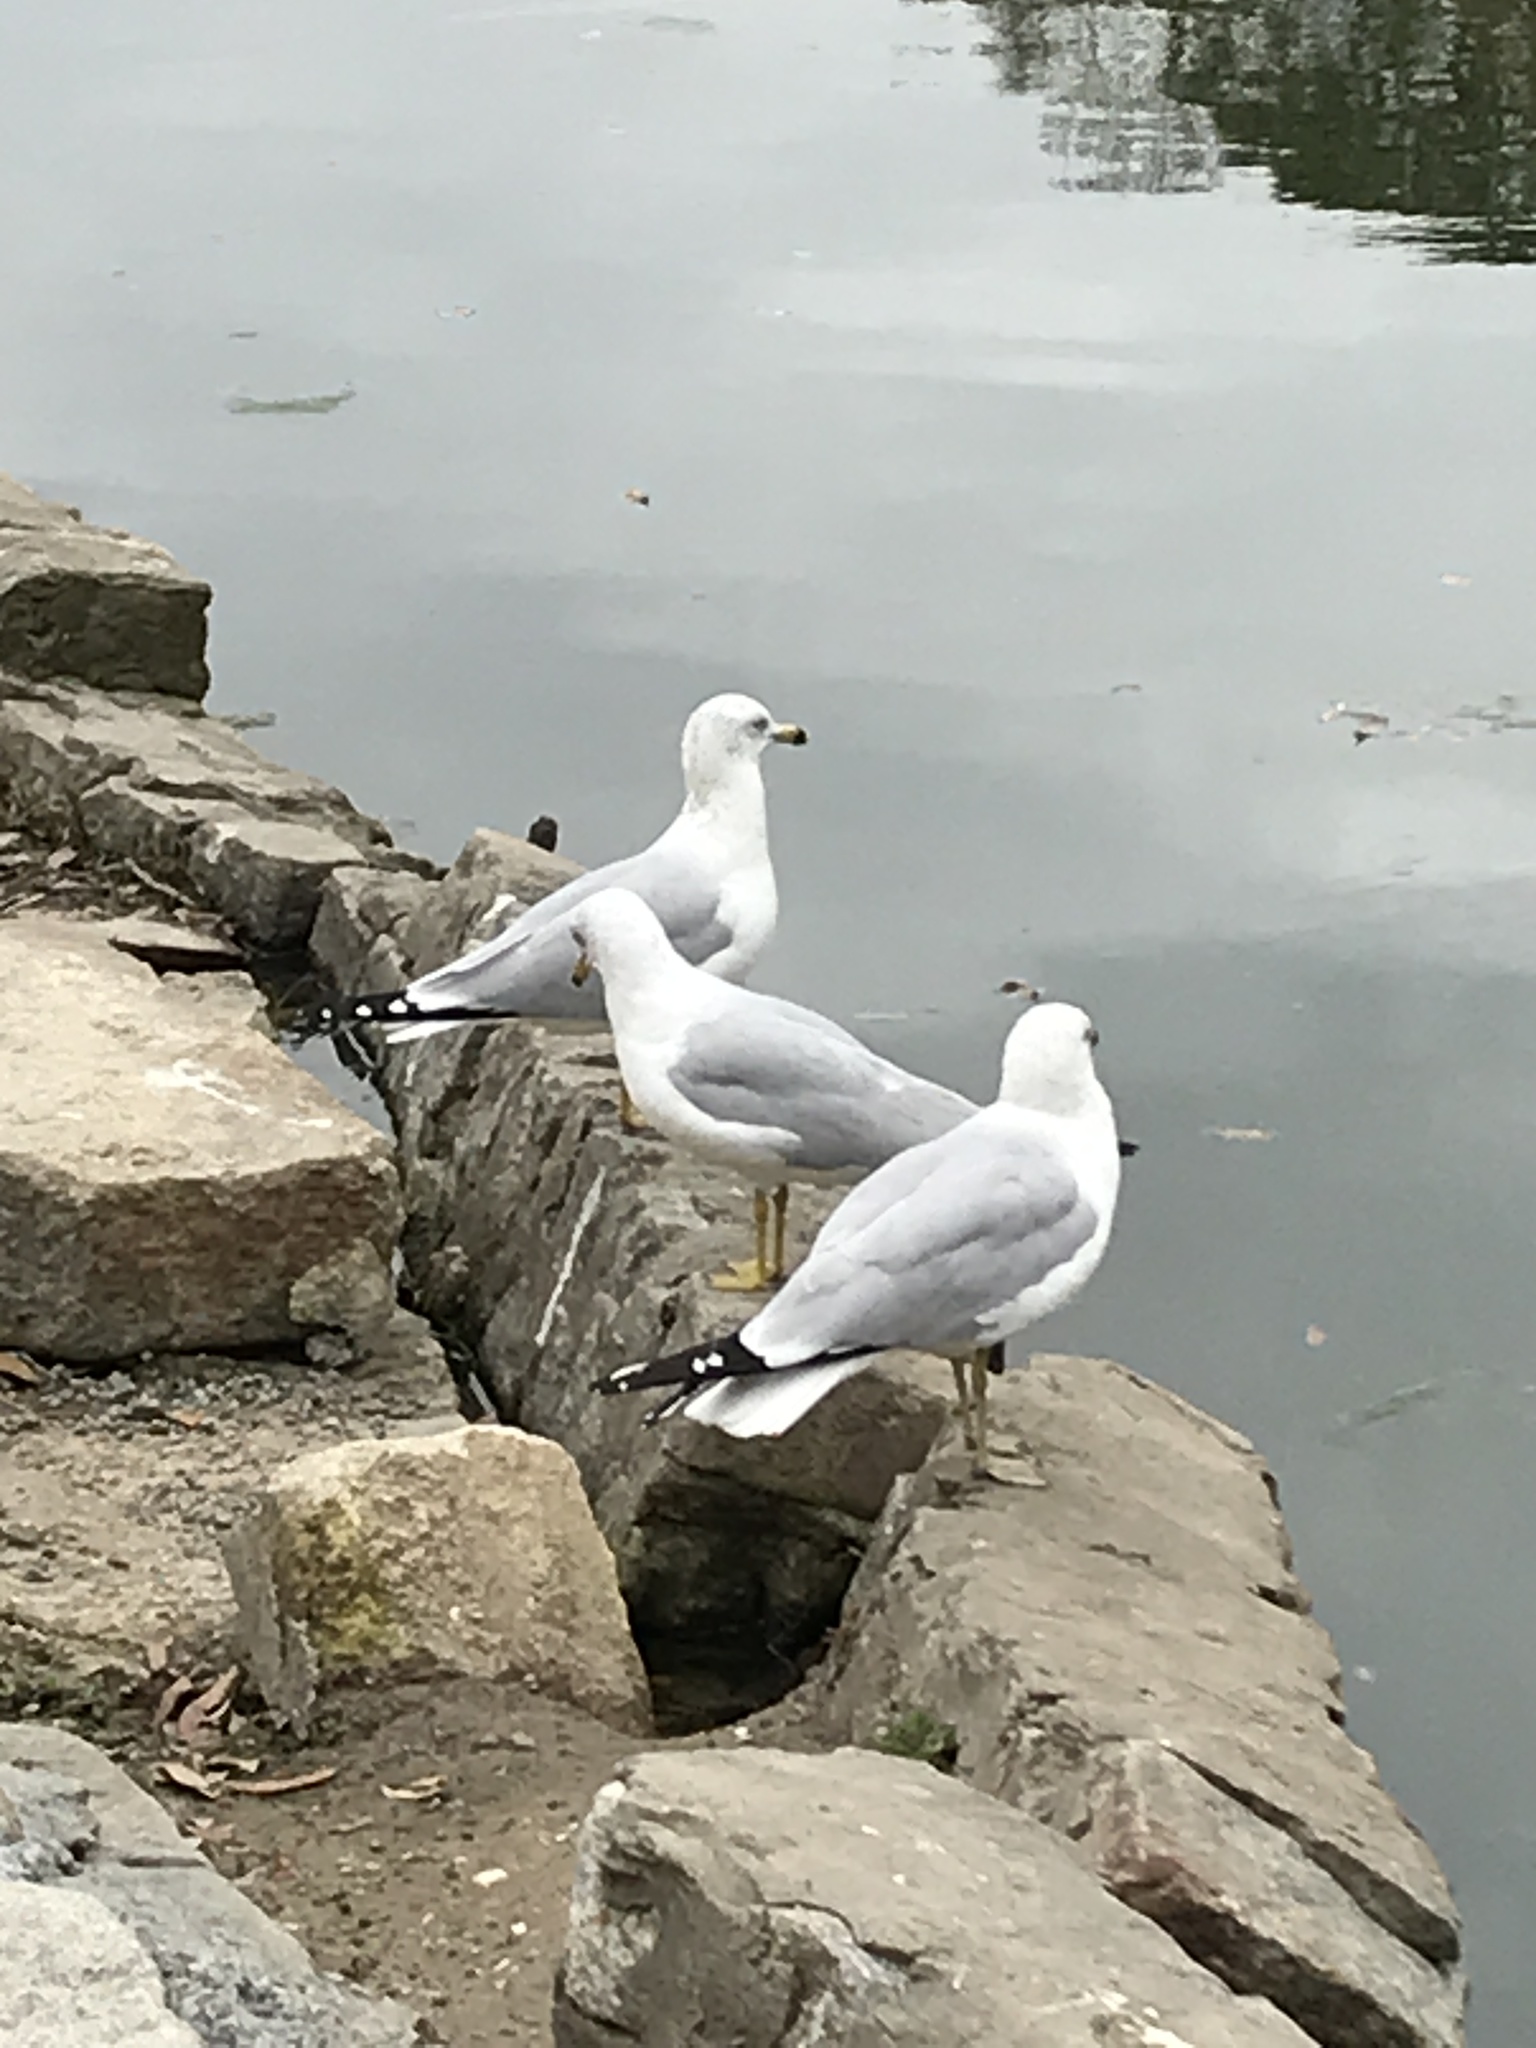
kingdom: Animalia
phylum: Chordata
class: Aves
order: Charadriiformes
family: Laridae
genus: Larus
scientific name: Larus delawarensis
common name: Ring-billed gull
